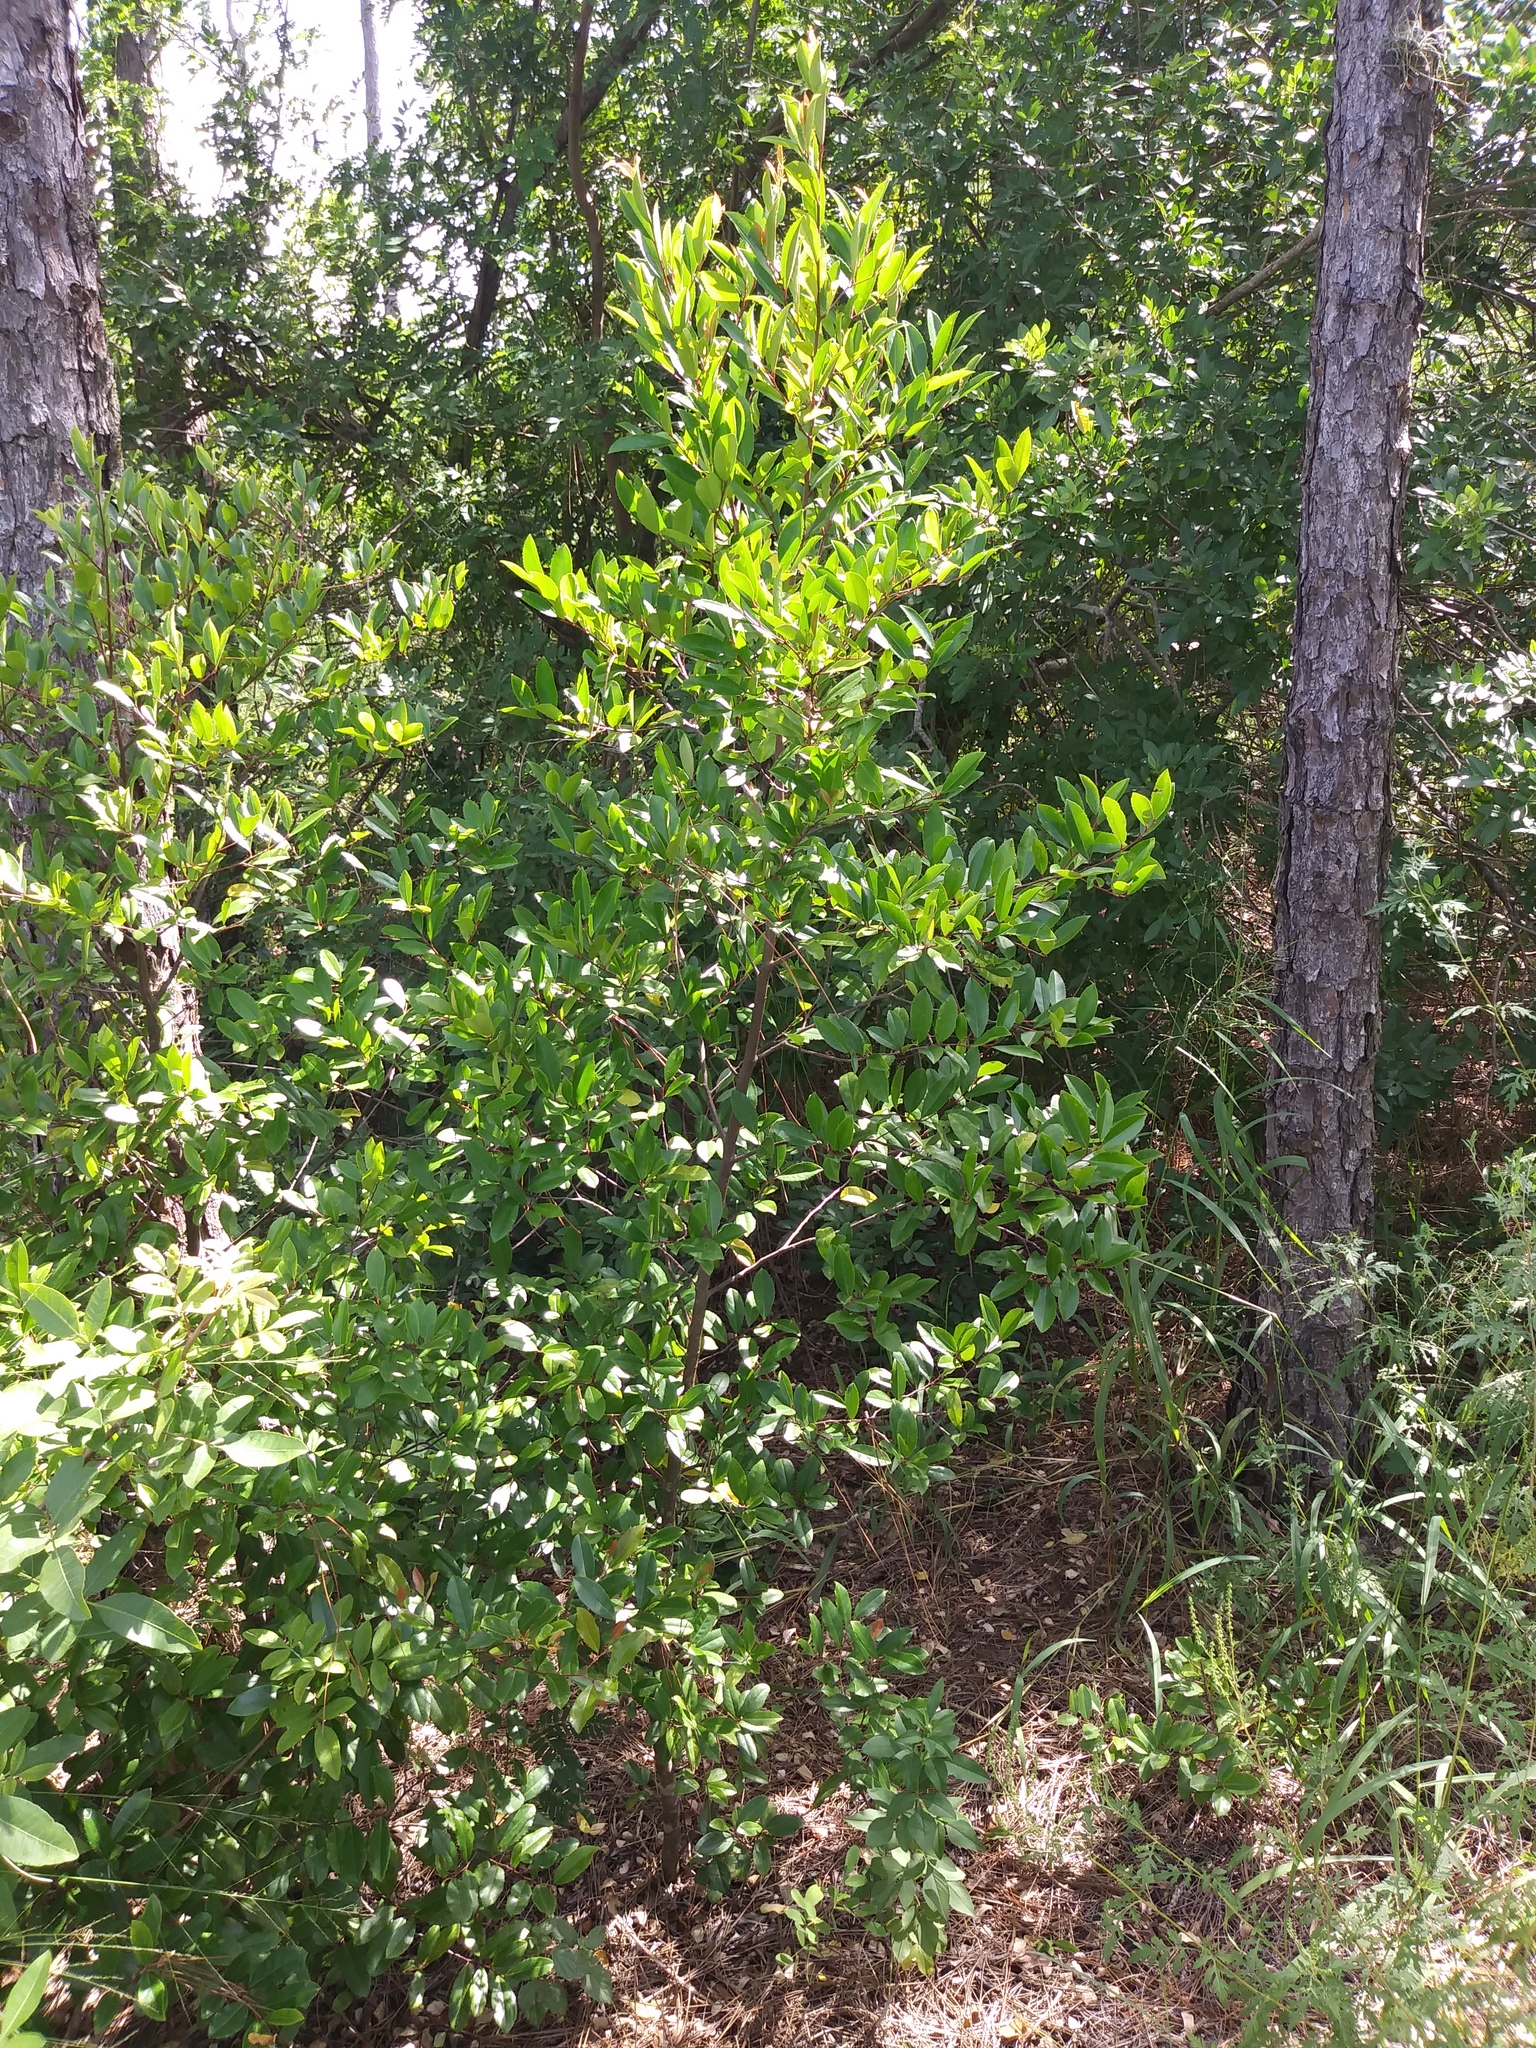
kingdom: Plantae
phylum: Tracheophyta
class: Magnoliopsida
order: Rosales
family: Rosaceae
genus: Prunus
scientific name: Prunus caroliniana
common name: Carolina laurel cherry
